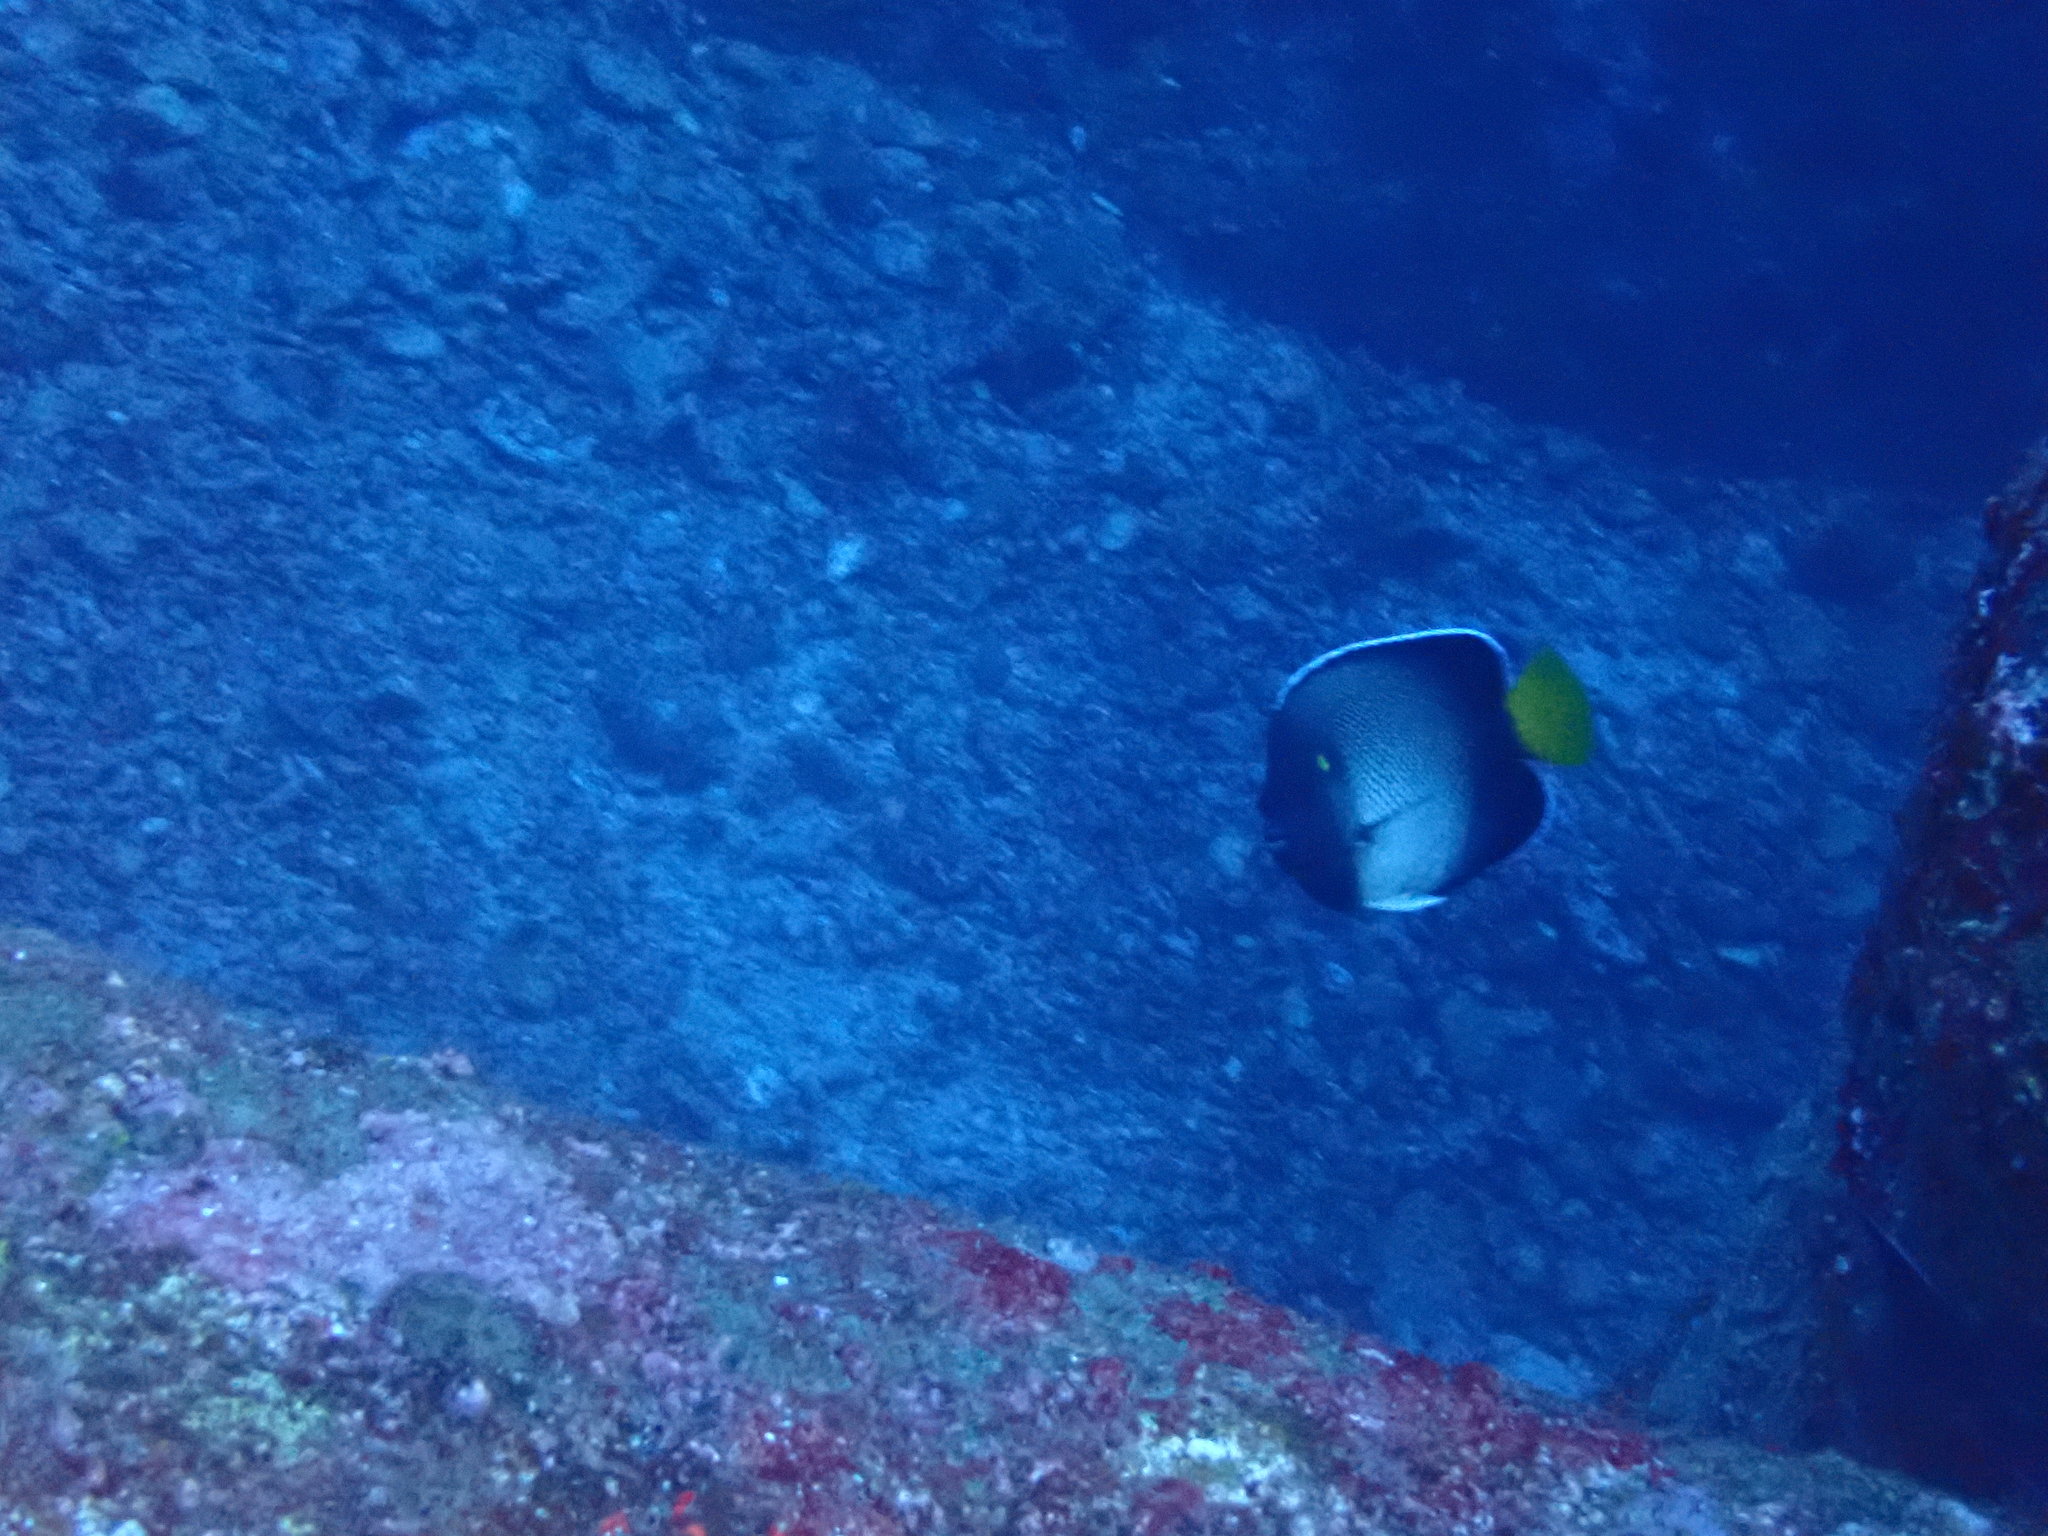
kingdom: Animalia
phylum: Chordata
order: Perciformes
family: Pomacanthidae
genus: Apolemichthys
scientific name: Apolemichthys xanthurus
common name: Indian yellowtail angelfish
